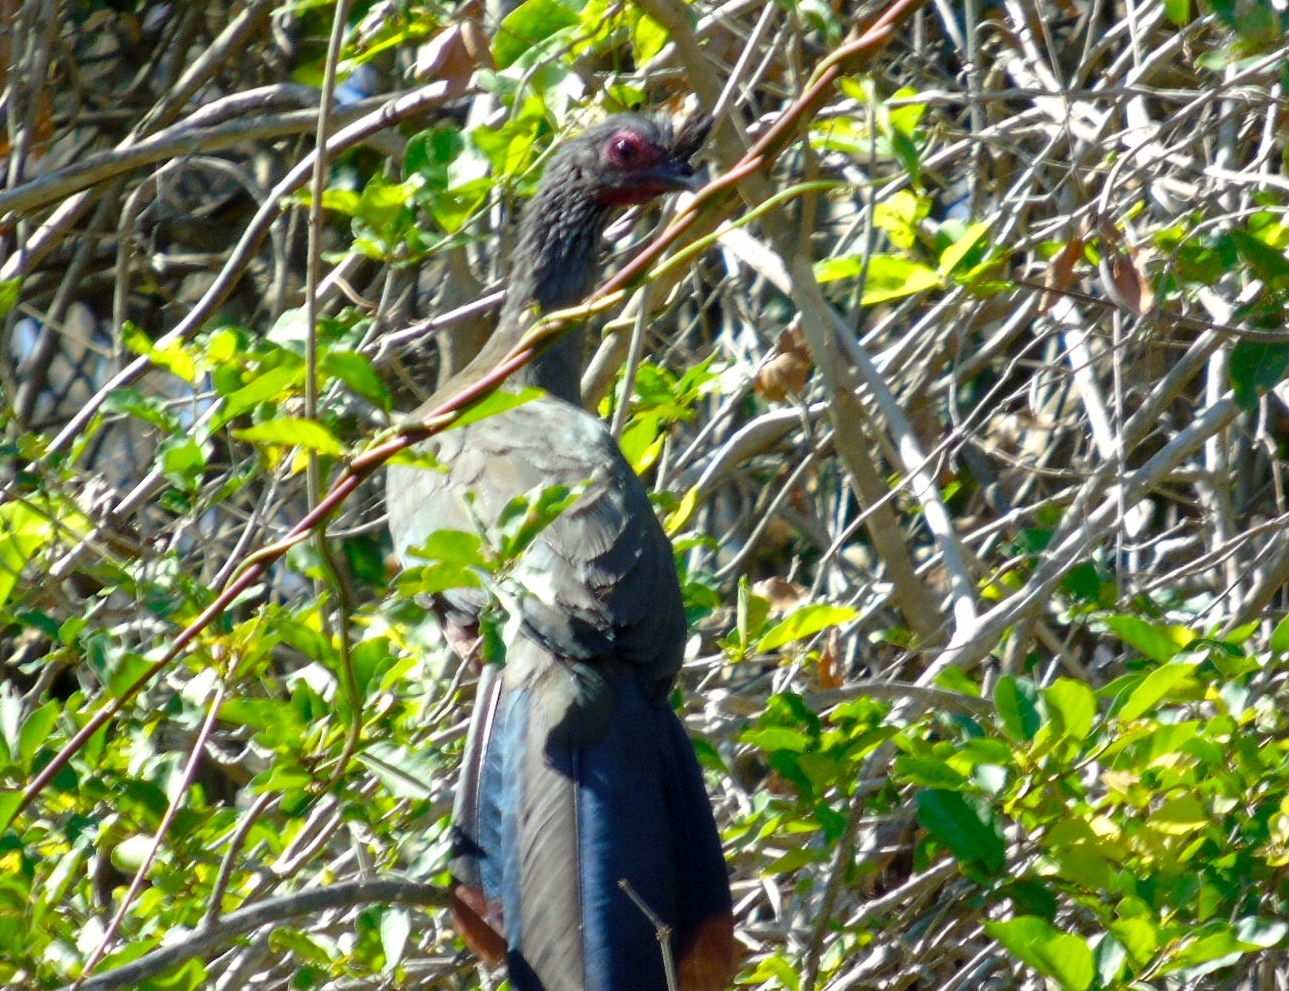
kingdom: Animalia
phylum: Chordata
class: Aves
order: Galliformes
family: Cracidae
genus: Ortalis
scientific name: Ortalis wagleri
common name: Rufous-bellied chachalaca
